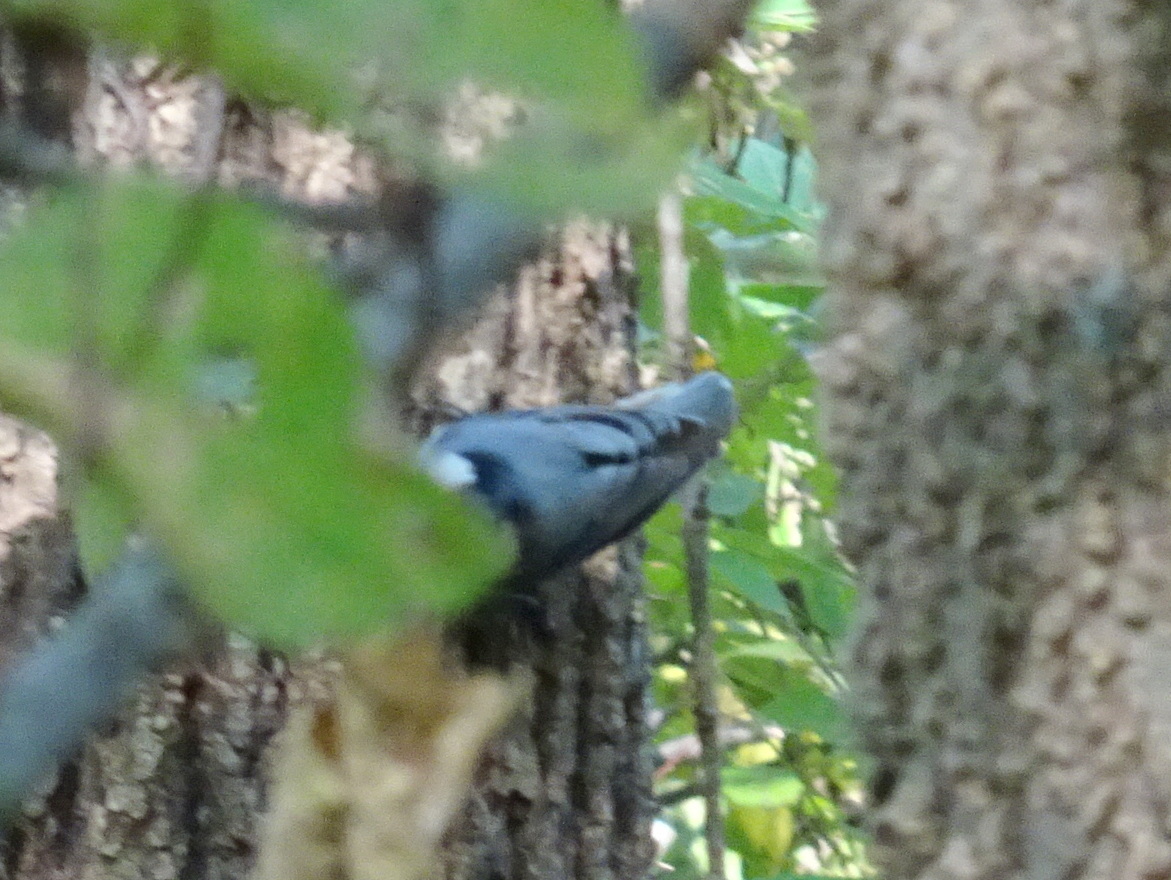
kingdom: Animalia
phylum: Chordata
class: Aves
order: Passeriformes
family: Sittidae
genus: Sitta
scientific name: Sitta carolinensis
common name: White-breasted nuthatch
